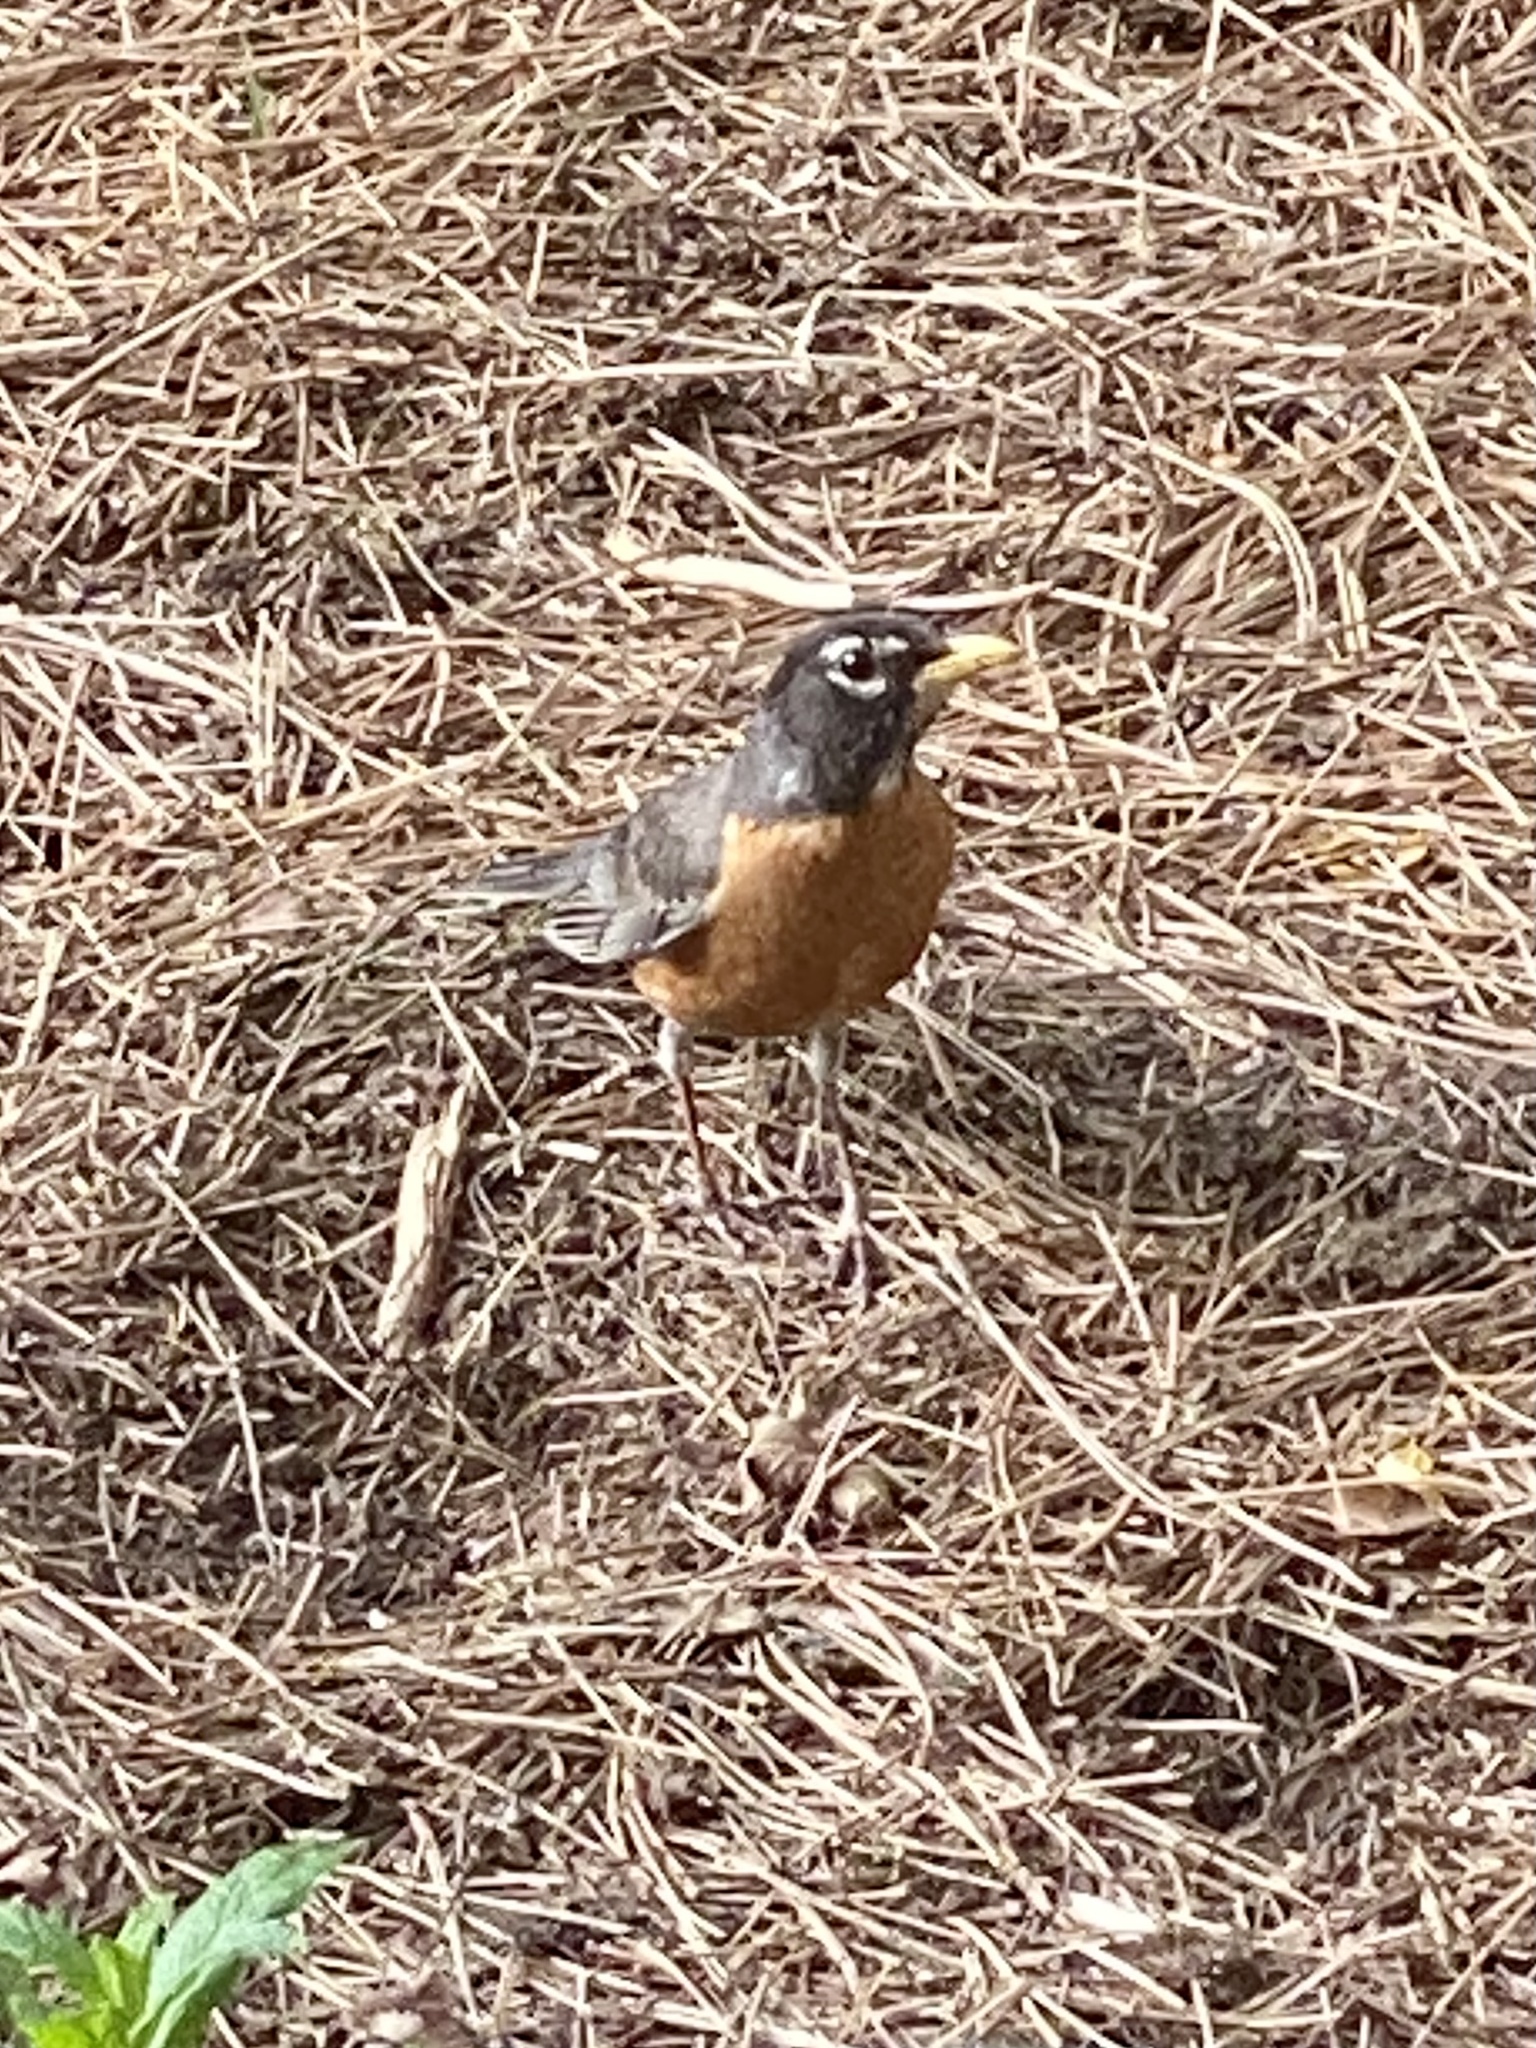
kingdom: Animalia
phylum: Chordata
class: Aves
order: Passeriformes
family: Turdidae
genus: Turdus
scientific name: Turdus migratorius
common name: American robin
